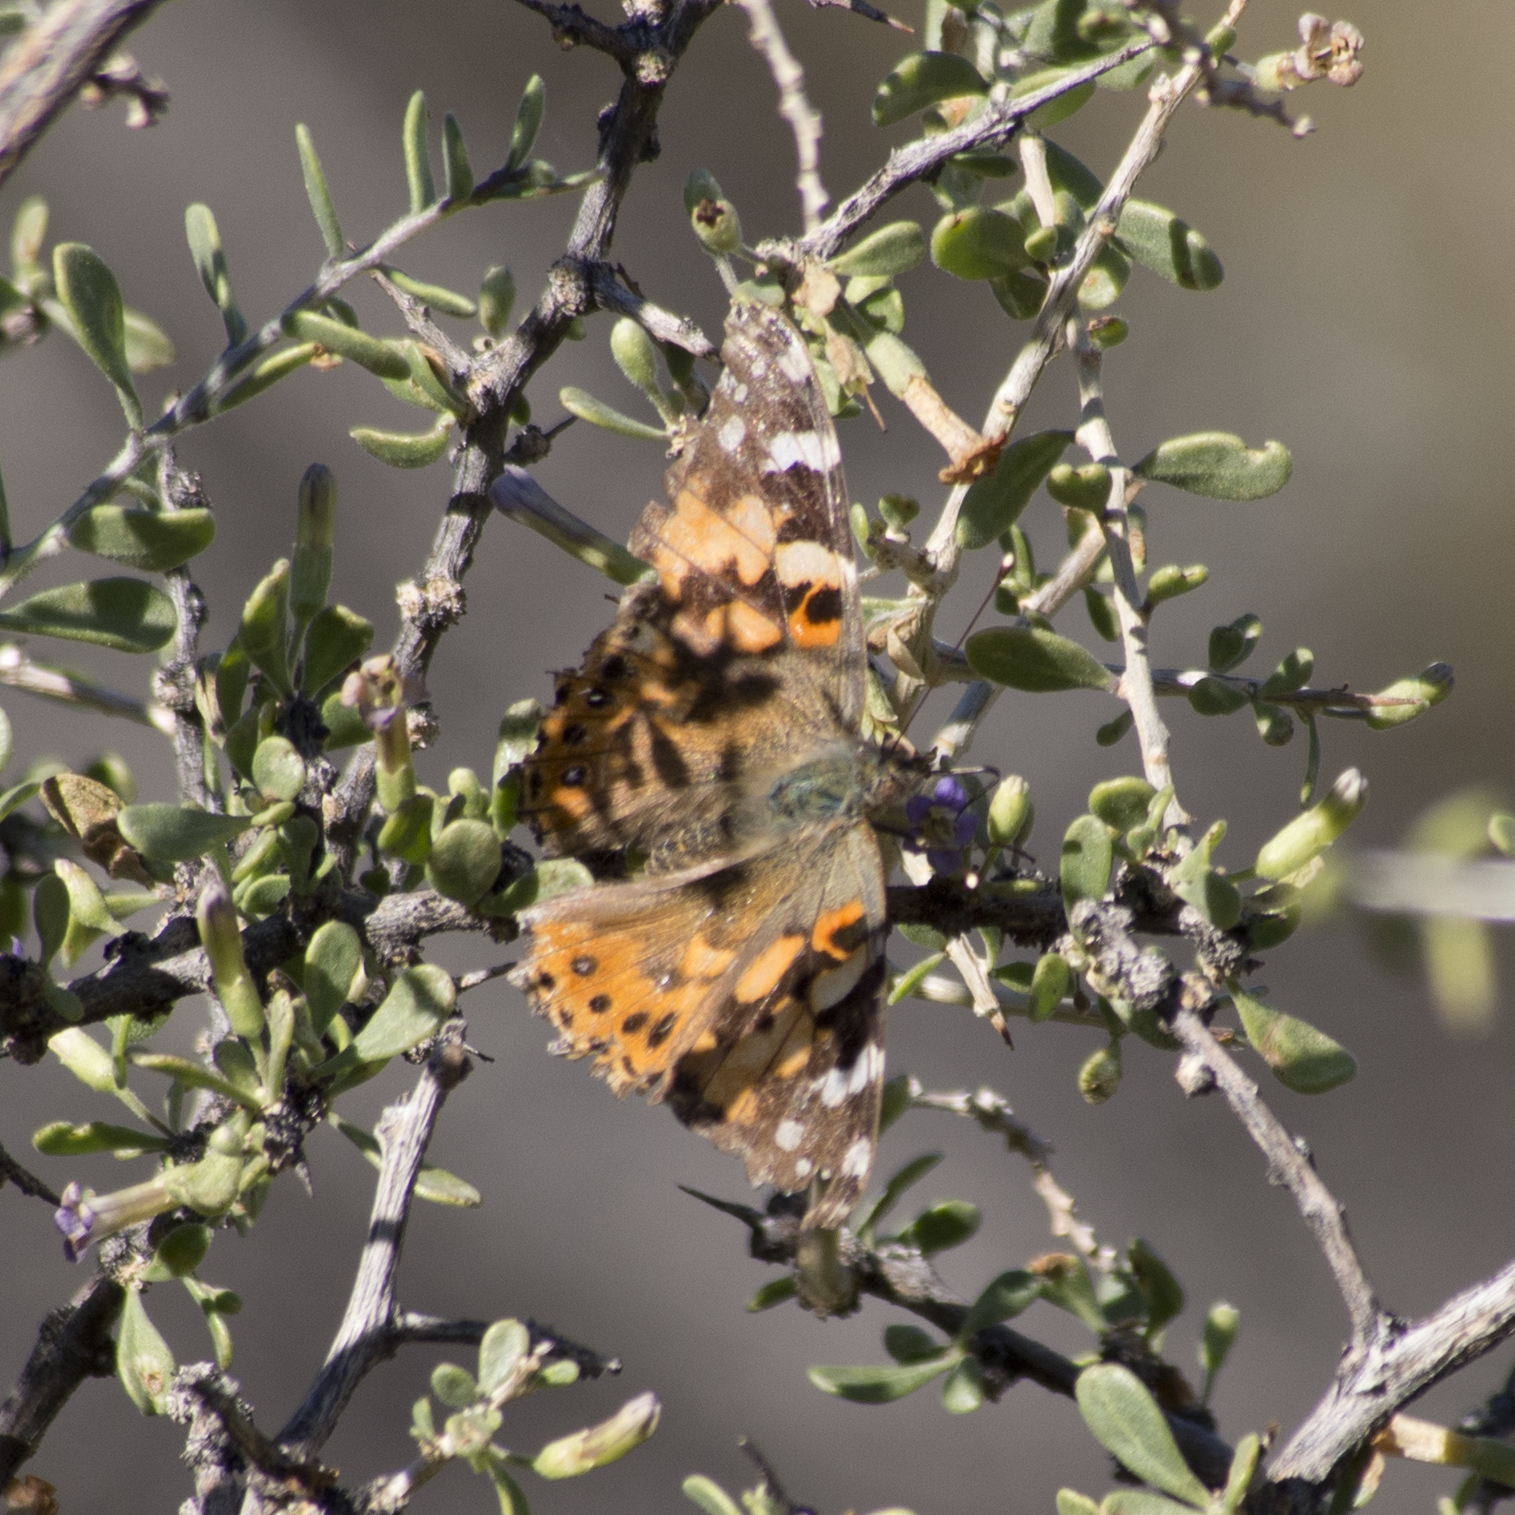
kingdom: Animalia
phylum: Arthropoda
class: Insecta
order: Lepidoptera
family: Nymphalidae
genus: Vanessa
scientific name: Vanessa cardui
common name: Painted lady
